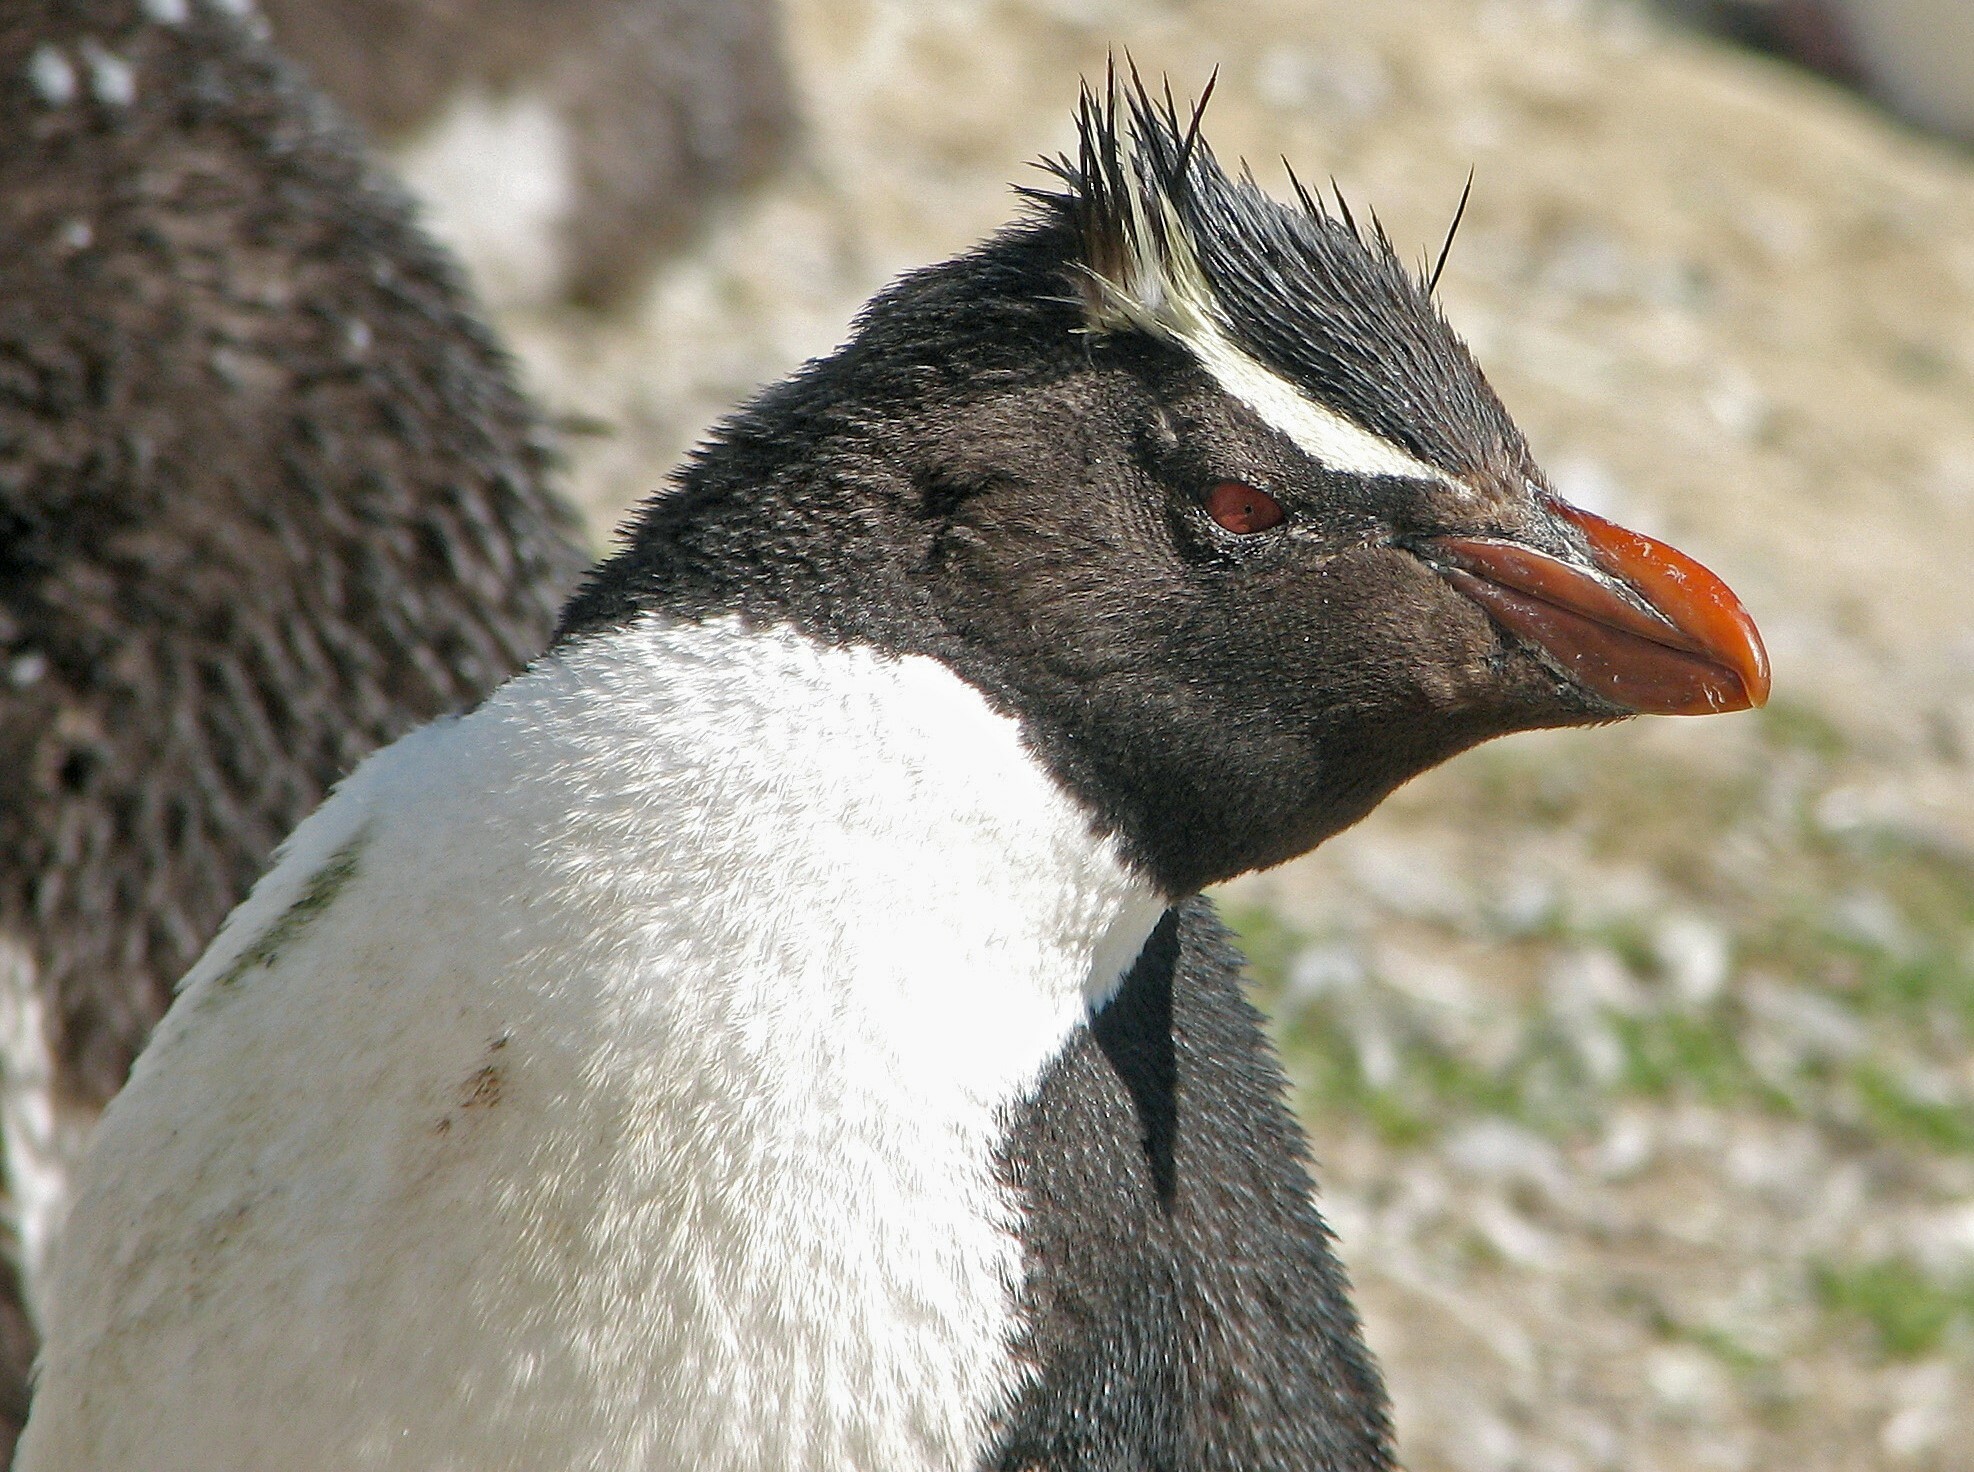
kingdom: Animalia
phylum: Chordata
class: Aves
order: Sphenisciformes
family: Spheniscidae
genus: Eudyptes
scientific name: Eudyptes chrysocome
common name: Southern rockhopper penguin
